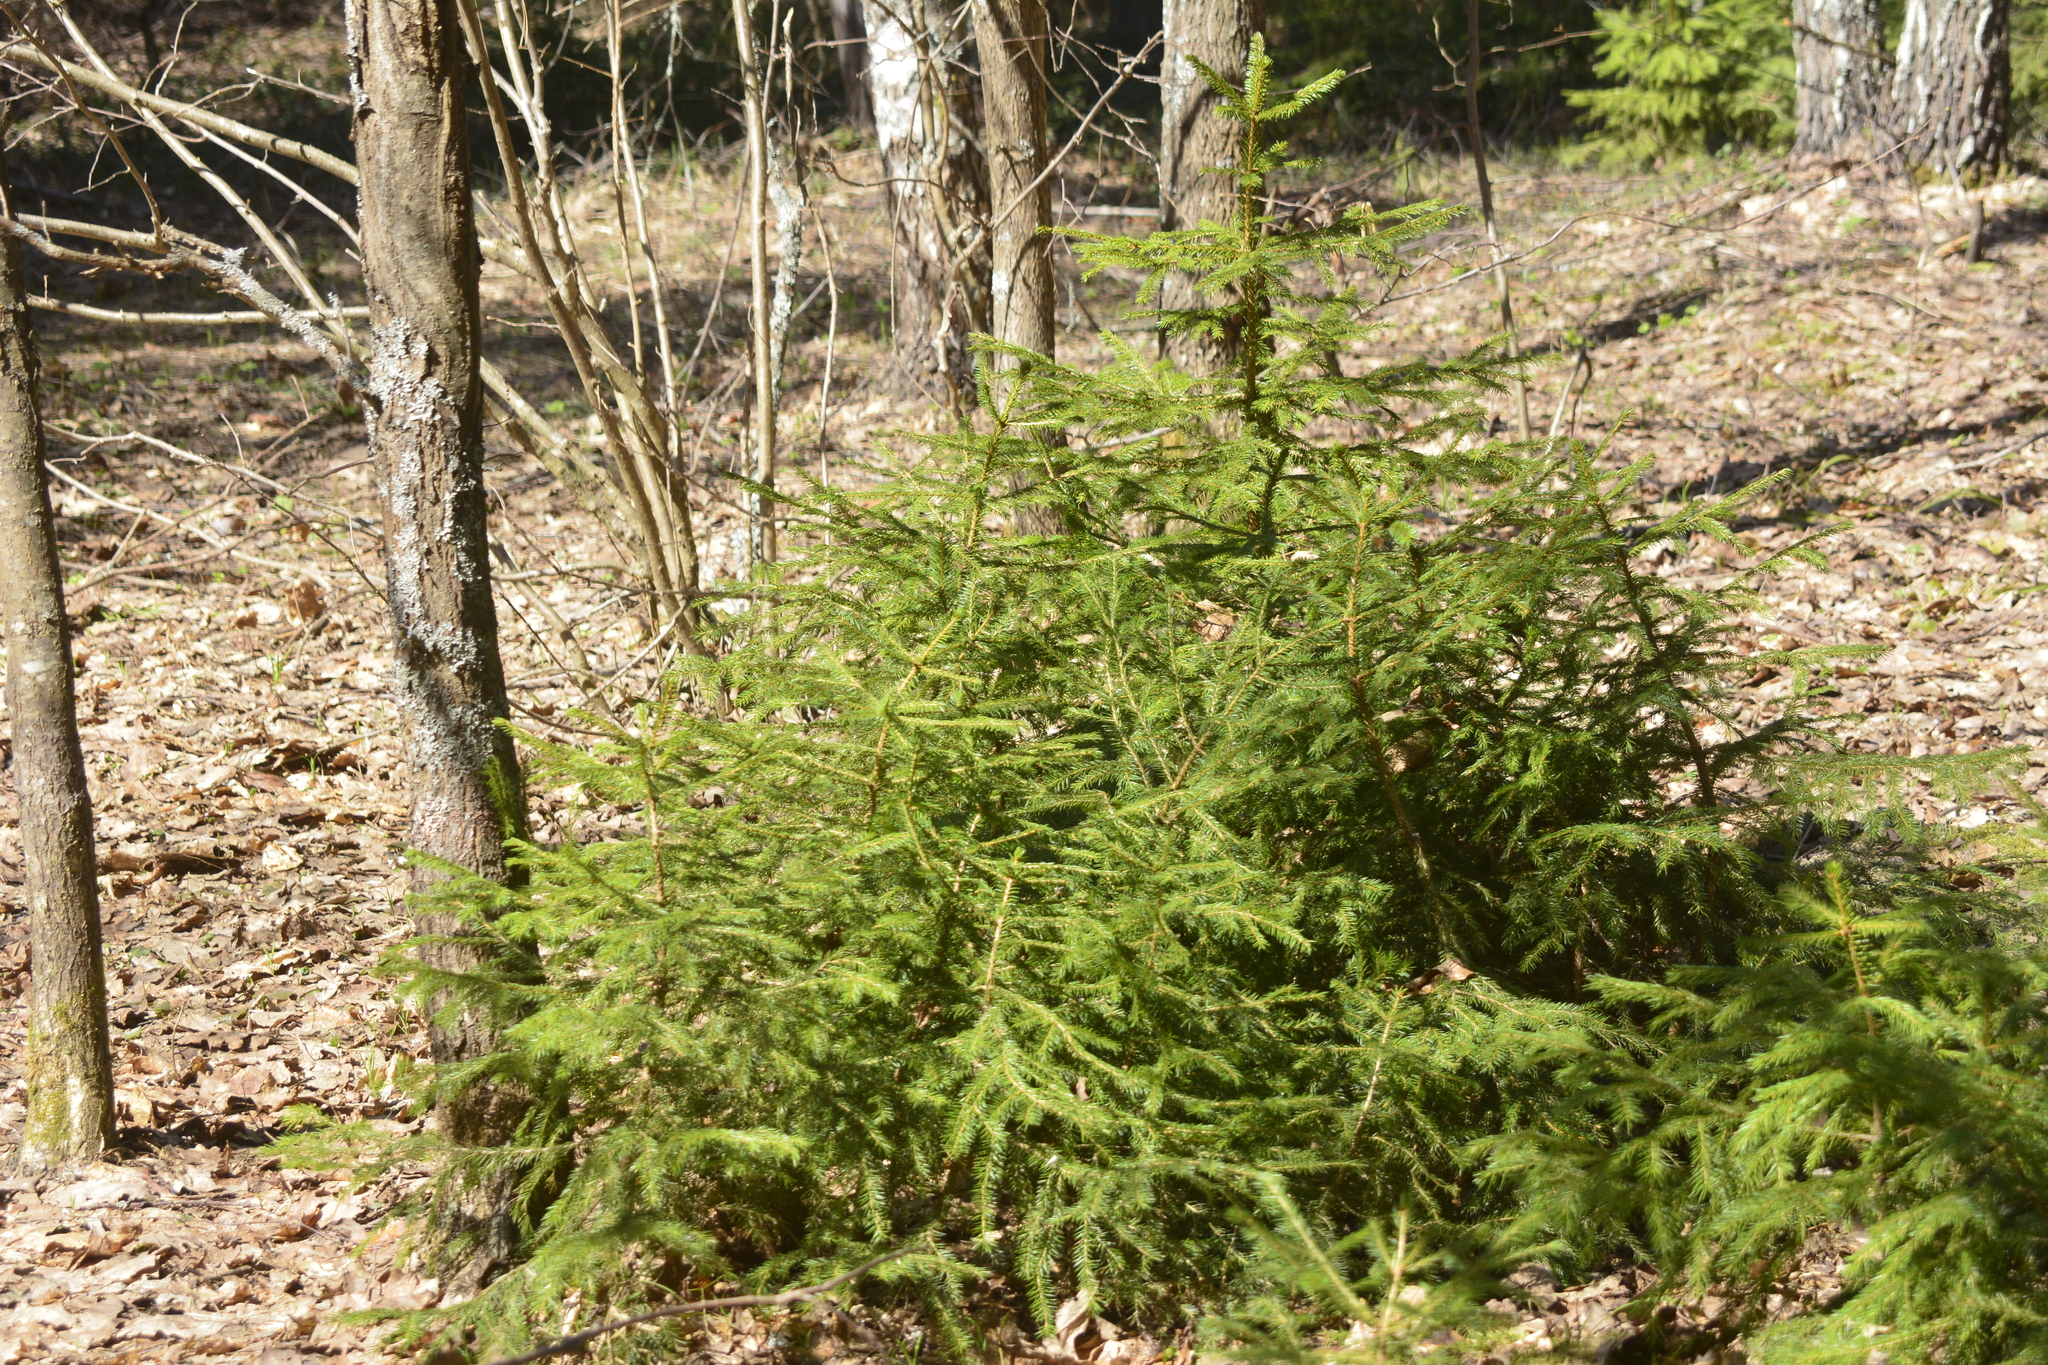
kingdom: Plantae
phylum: Tracheophyta
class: Pinopsida
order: Pinales
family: Pinaceae
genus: Picea
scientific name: Picea abies
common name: Norway spruce
